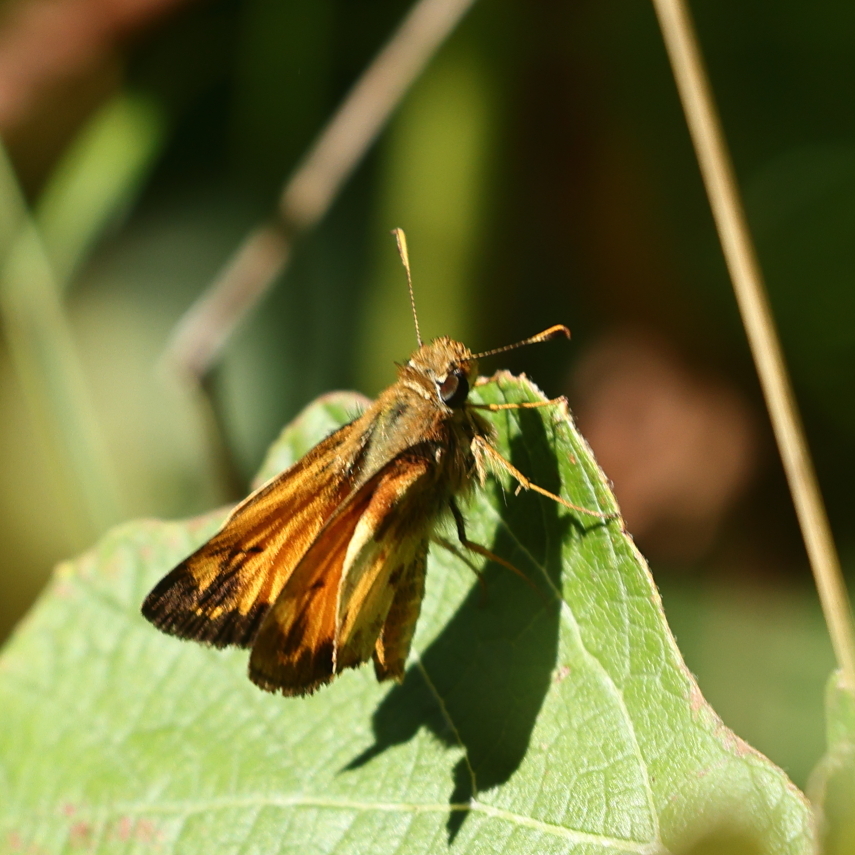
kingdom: Animalia
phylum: Arthropoda
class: Insecta
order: Lepidoptera
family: Hesperiidae
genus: Lon
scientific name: Lon zabulon
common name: Zabulon skipper
